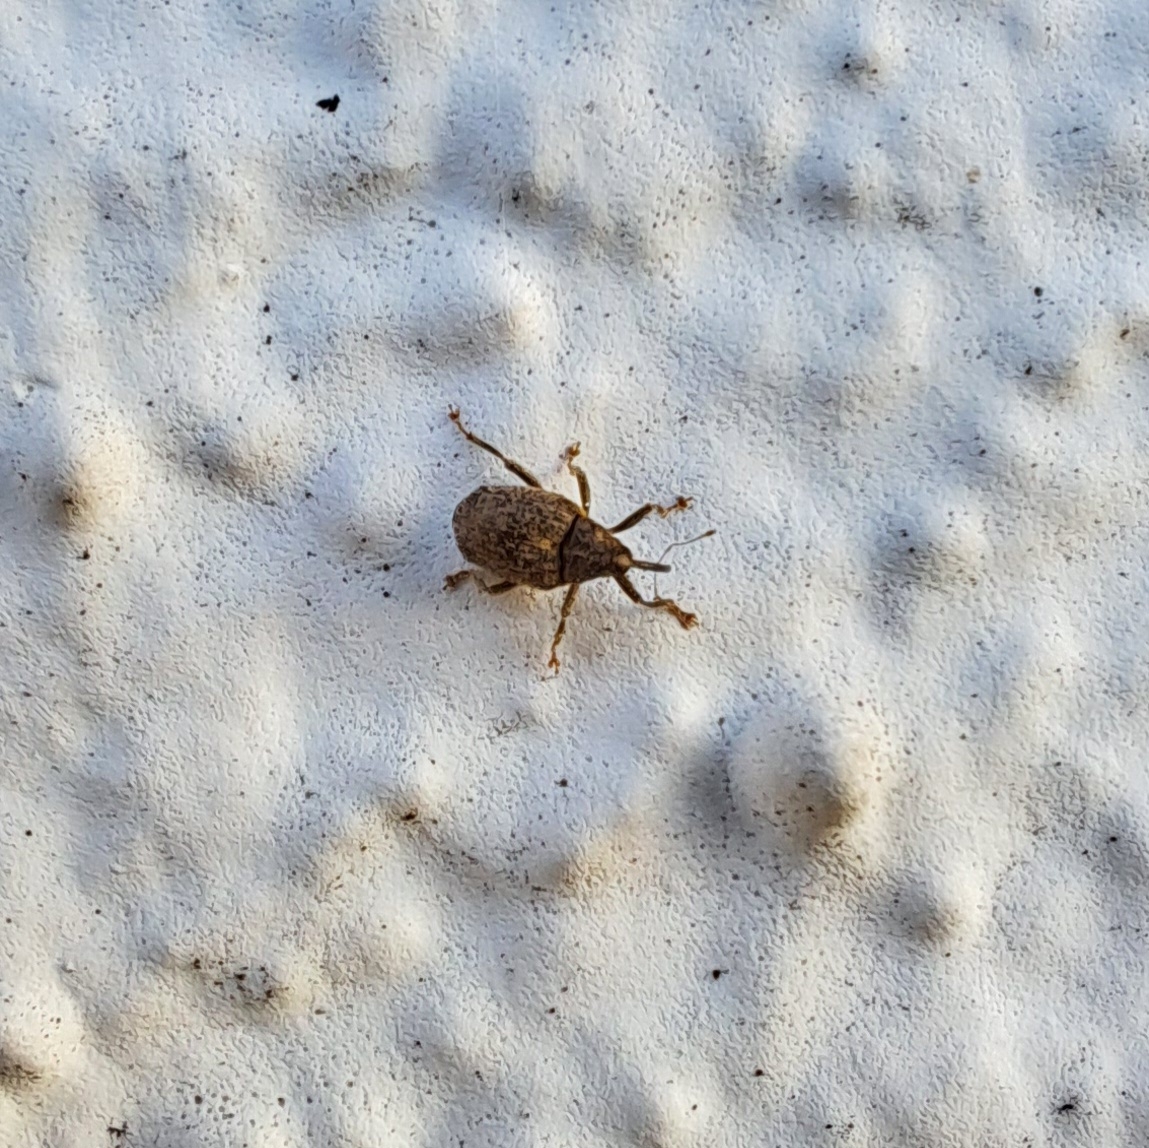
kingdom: Animalia
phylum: Arthropoda
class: Insecta
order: Coleoptera
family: Curculionidae
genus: Ceutorhynchus
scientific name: Ceutorhynchus pallidactylus
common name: Cabbage stem weavil
